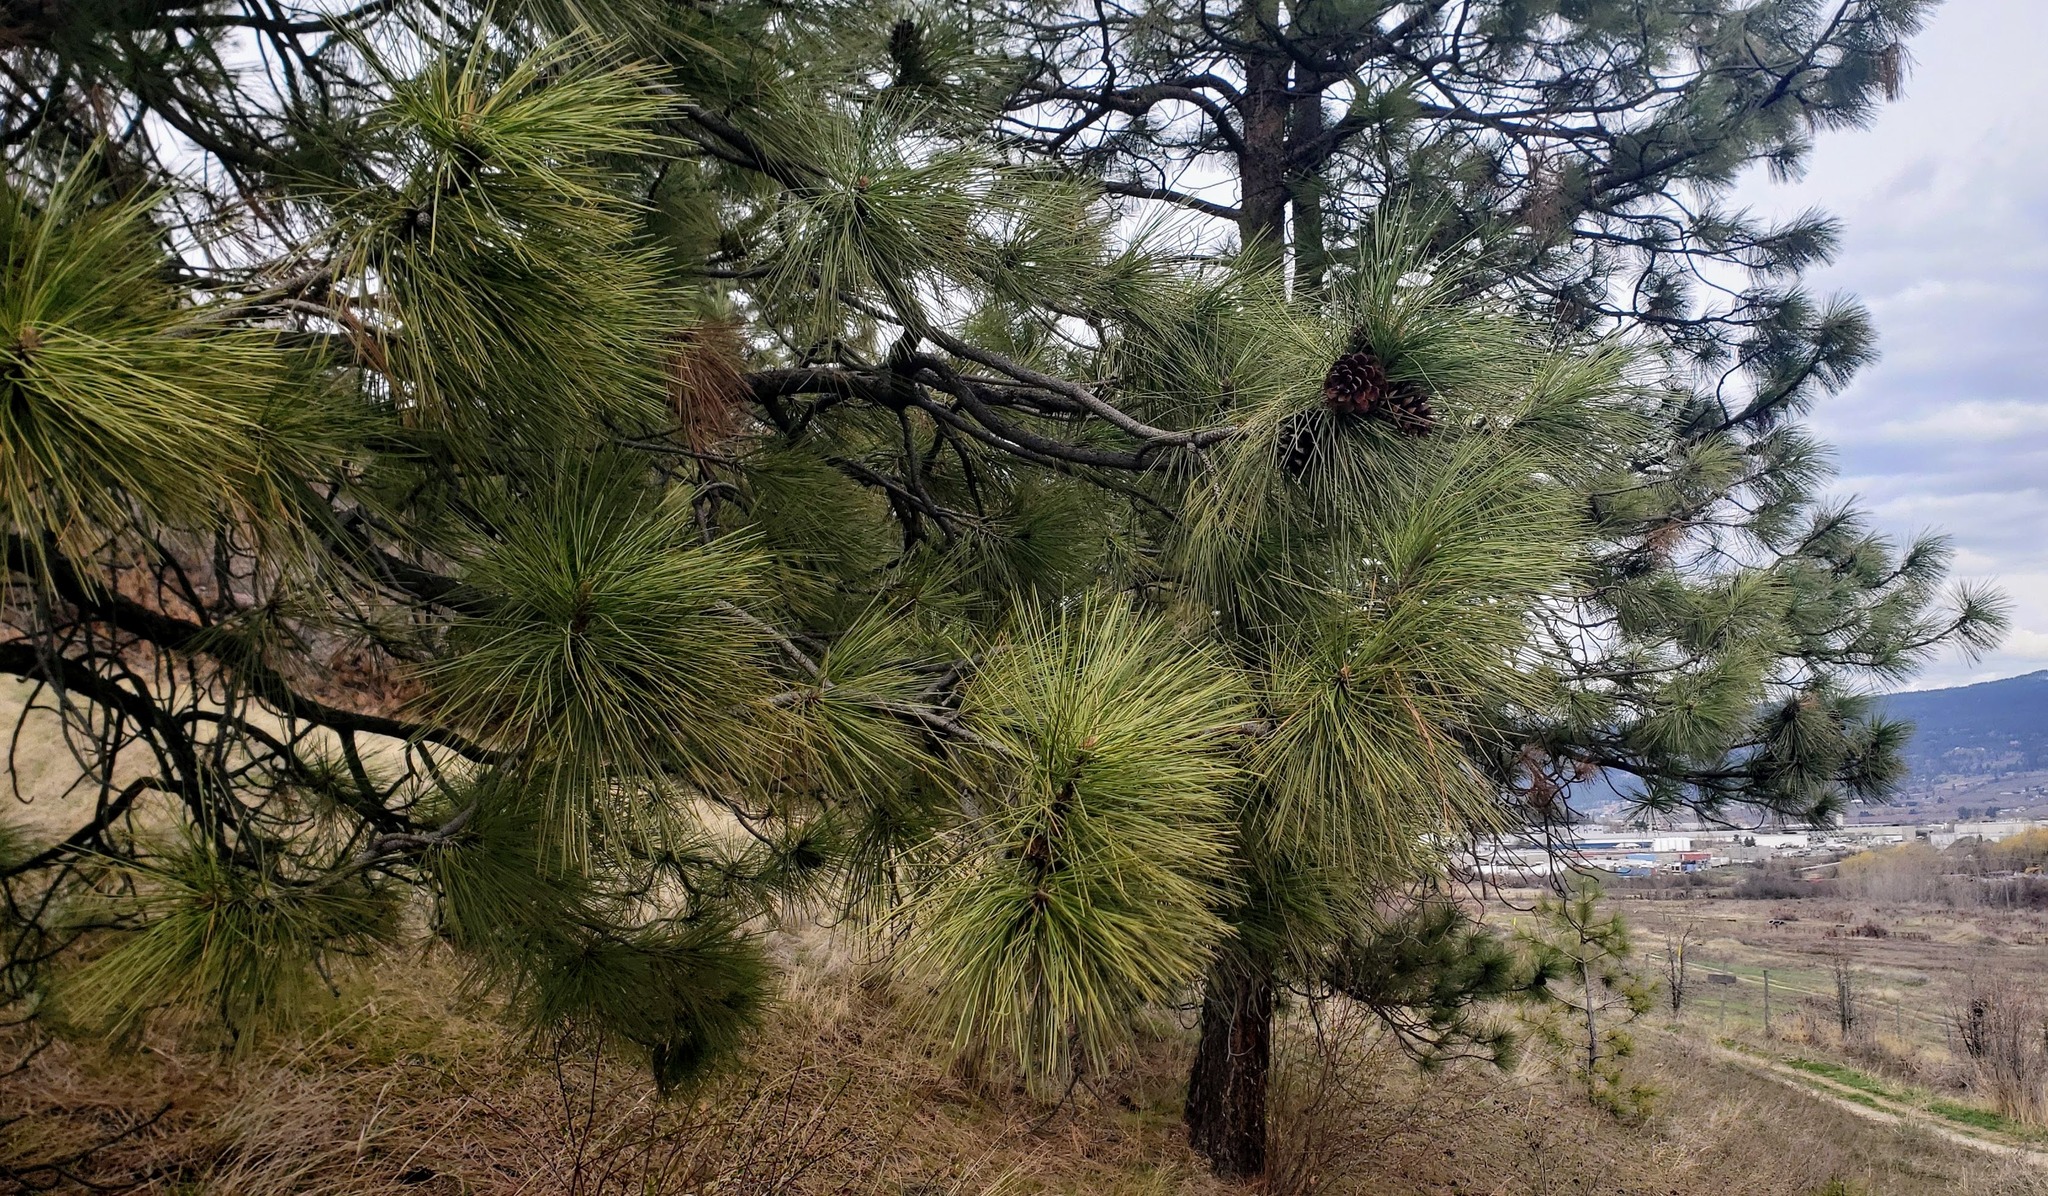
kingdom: Plantae
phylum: Tracheophyta
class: Pinopsida
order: Pinales
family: Pinaceae
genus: Pinus
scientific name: Pinus ponderosa
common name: Western yellow-pine
